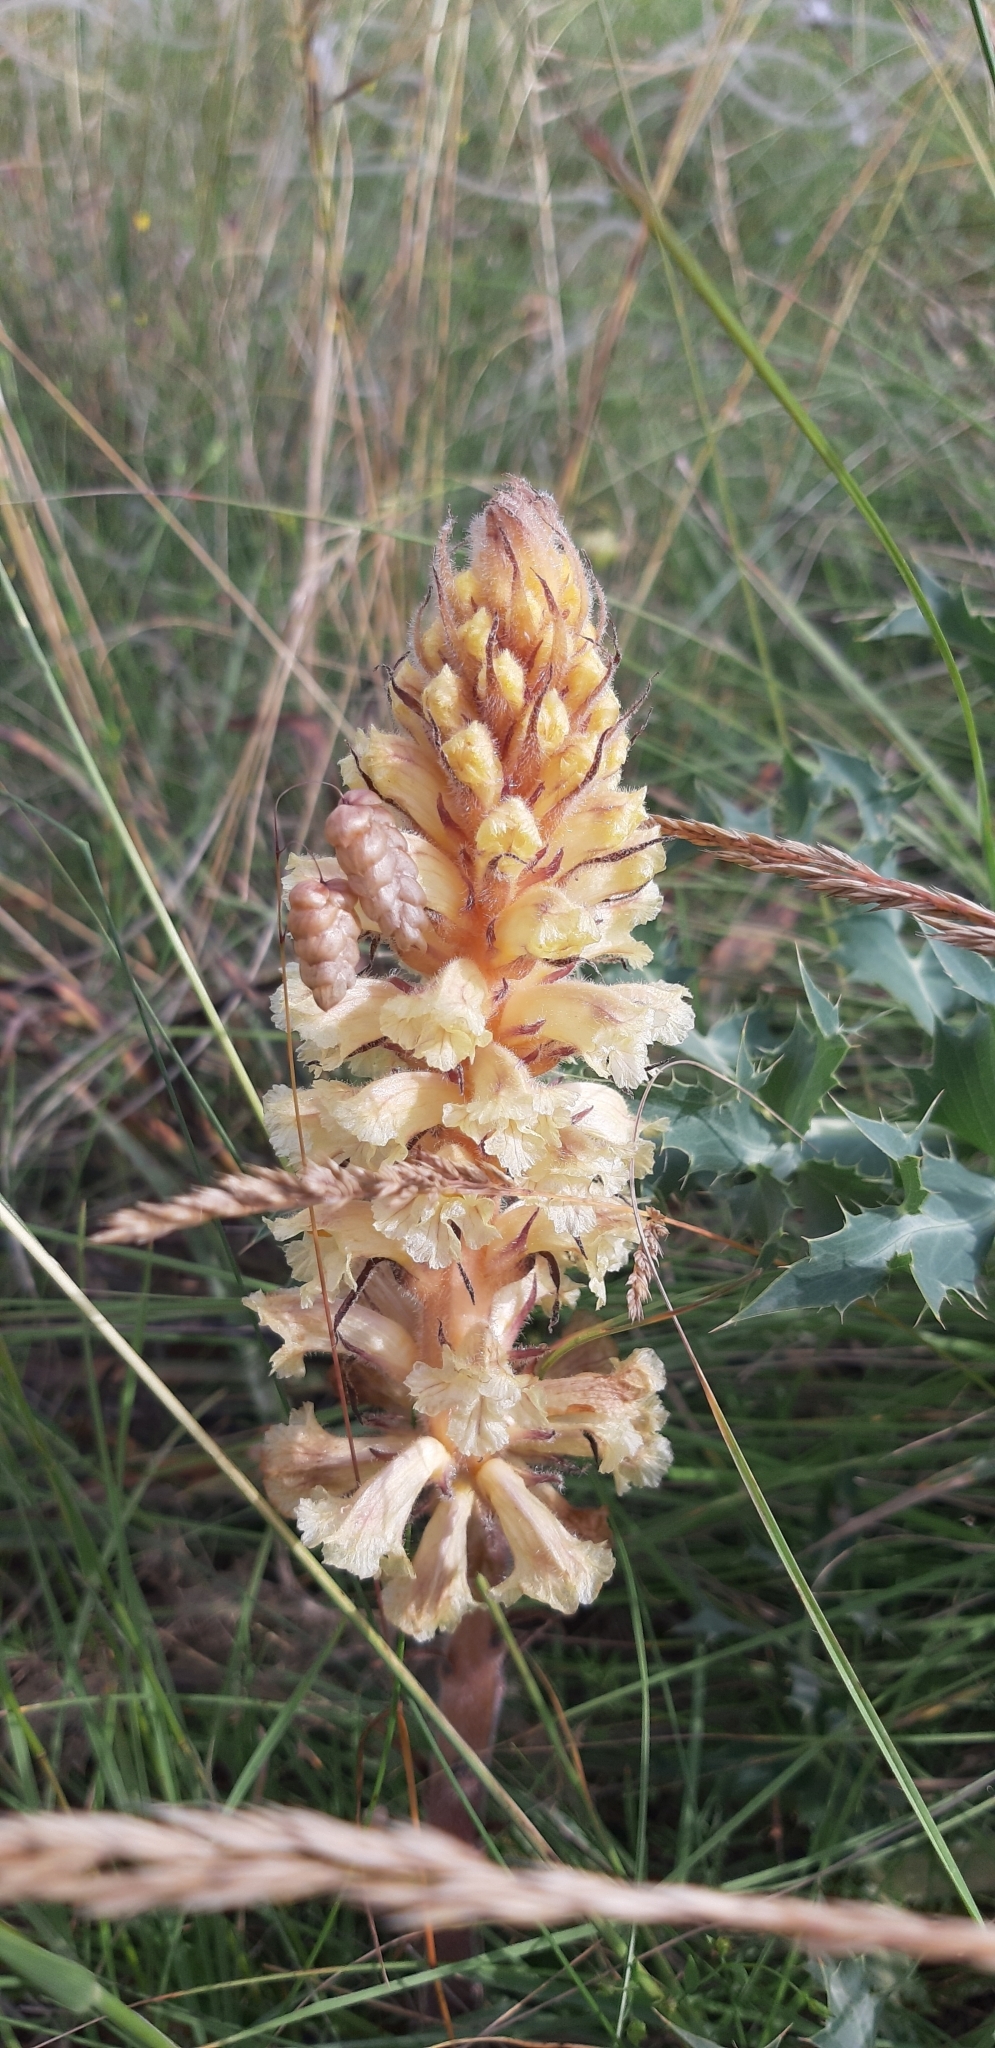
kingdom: Plantae
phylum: Tracheophyta
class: Magnoliopsida
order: Lamiales
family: Orobanchaceae
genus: Orobanche
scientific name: Orobanche amethystea
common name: Amethyst broomrape
